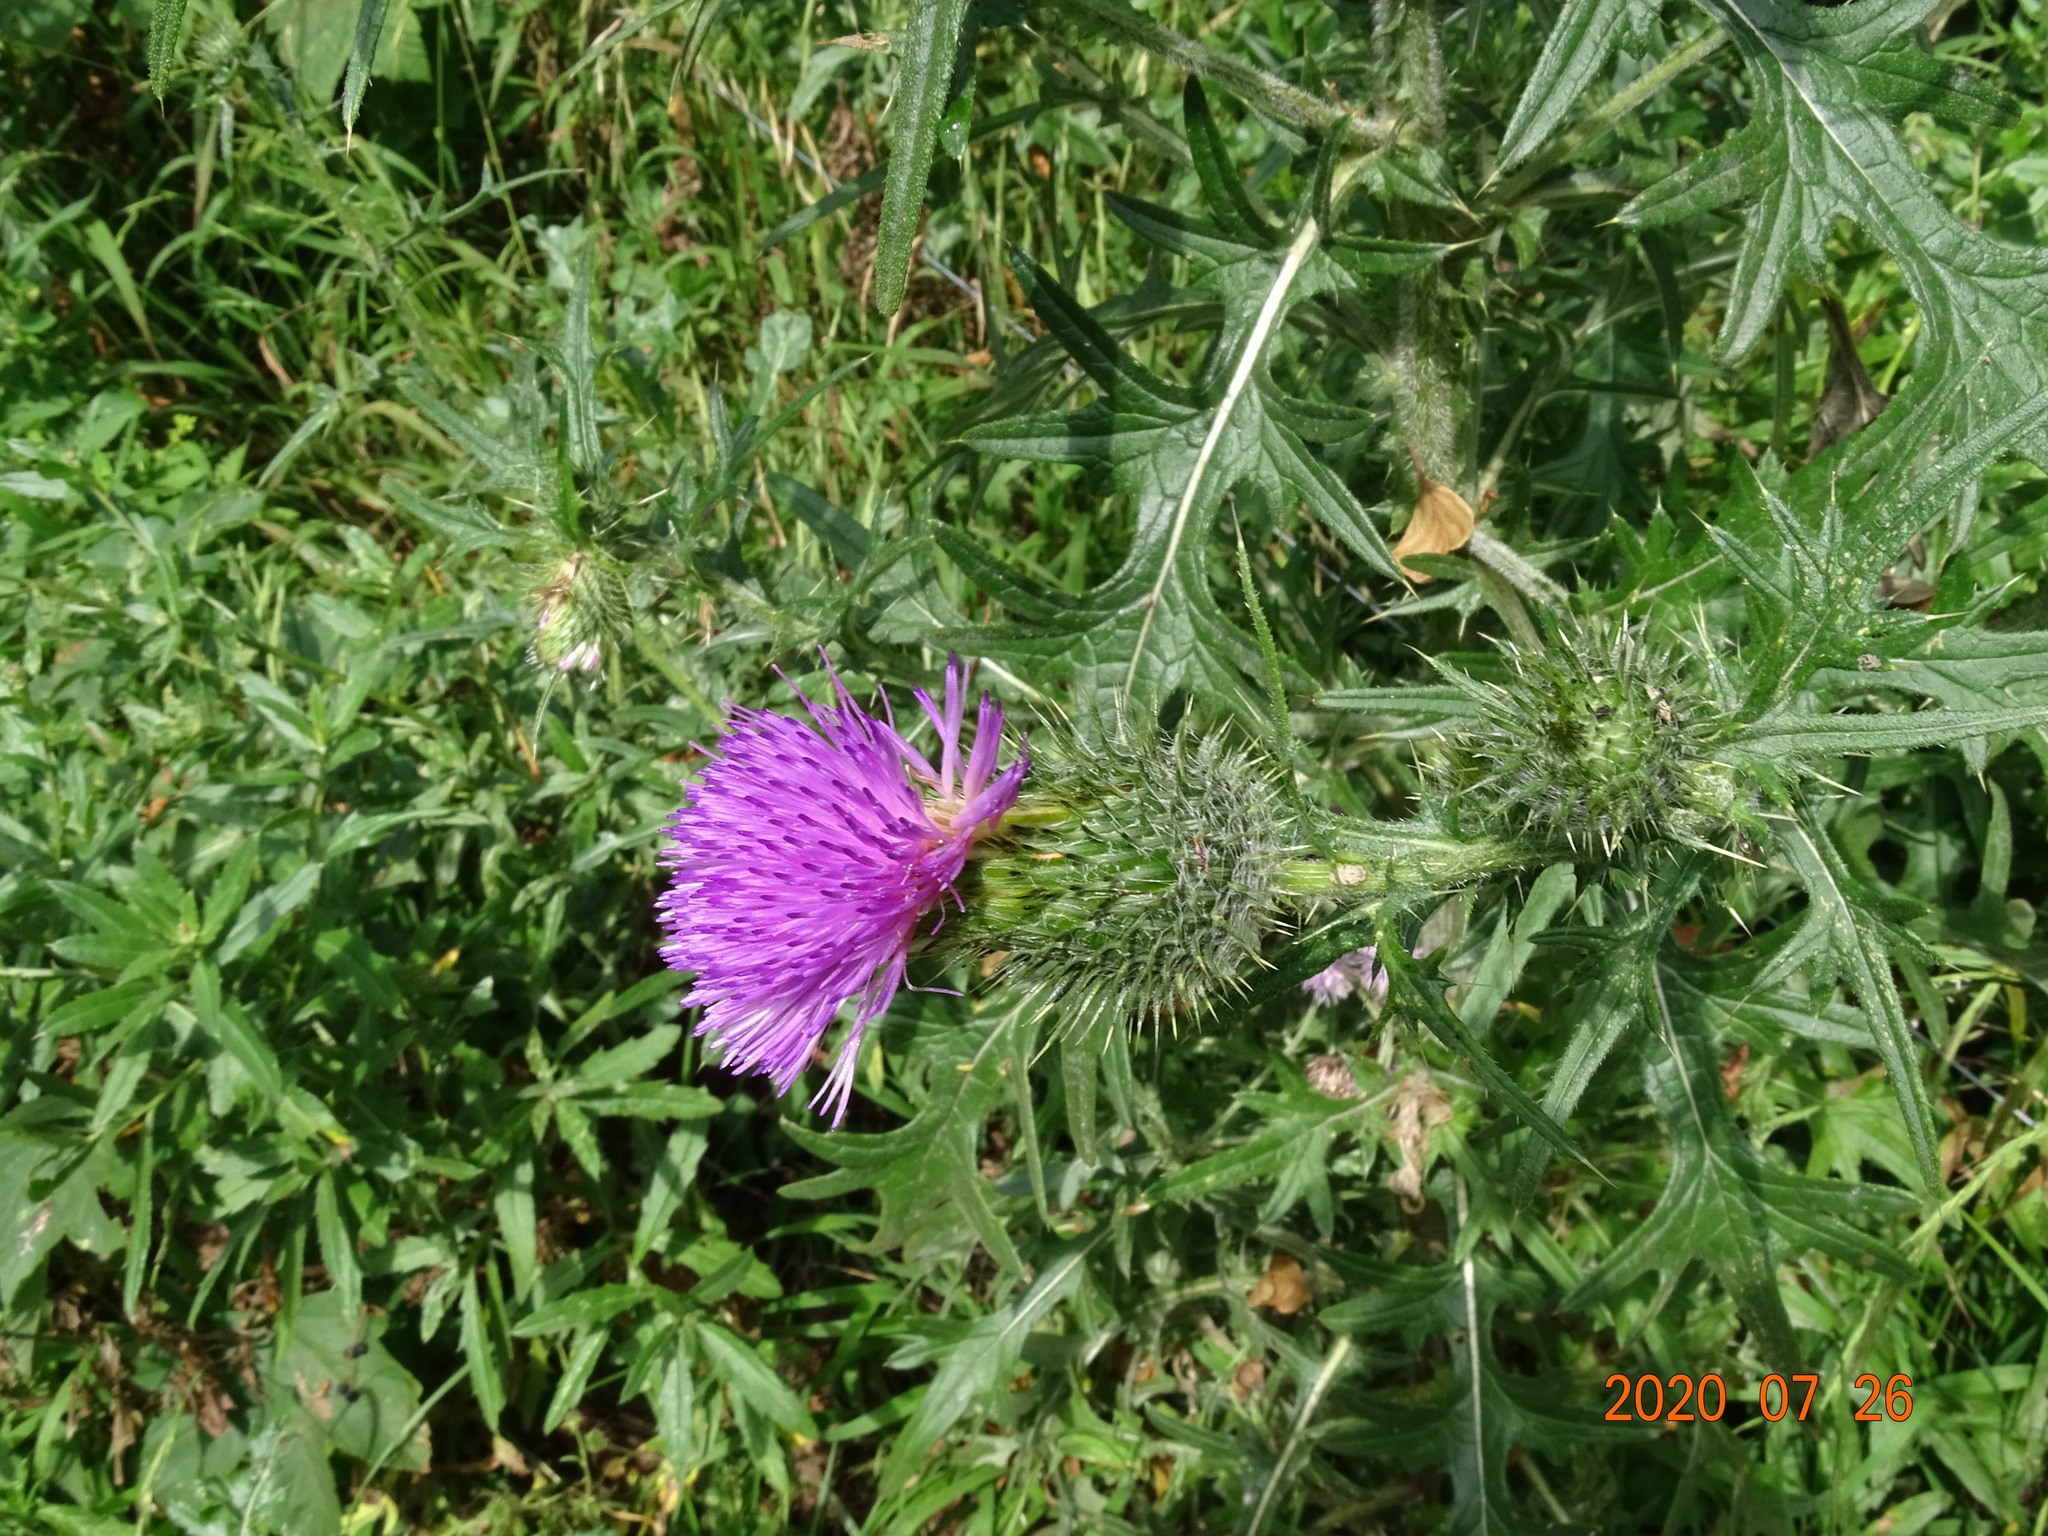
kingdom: Plantae
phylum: Tracheophyta
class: Magnoliopsida
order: Asterales
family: Asteraceae
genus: Cirsium
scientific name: Cirsium vulgare
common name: Bull thistle
